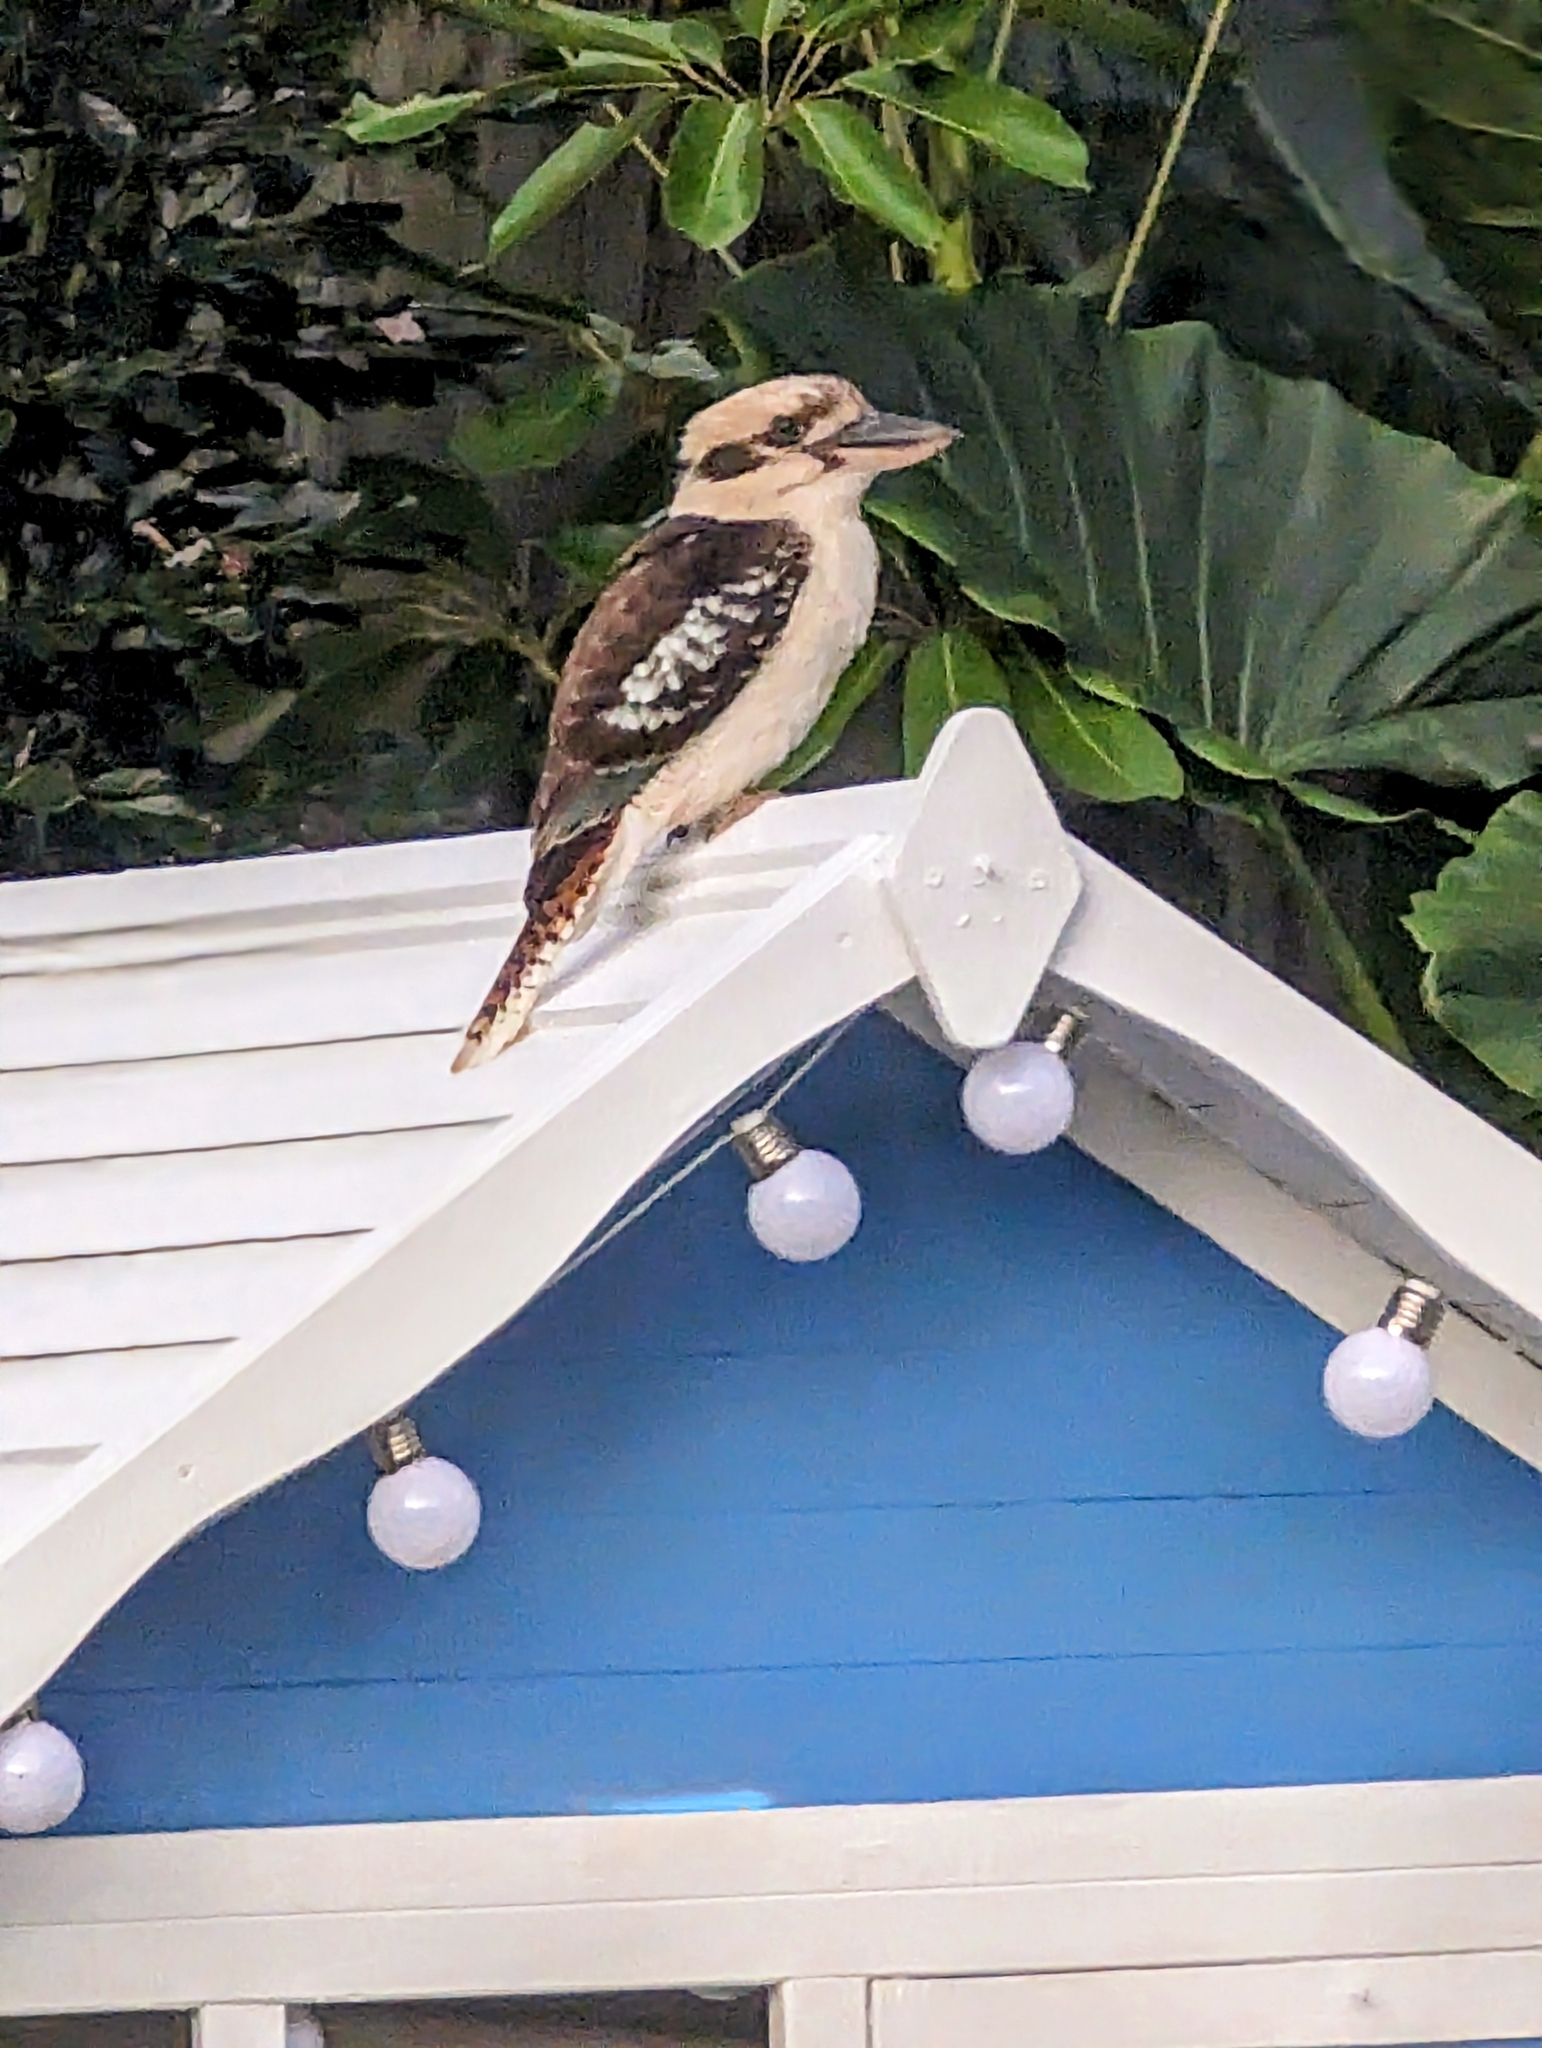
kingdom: Animalia
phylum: Chordata
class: Aves
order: Coraciiformes
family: Alcedinidae
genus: Dacelo
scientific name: Dacelo novaeguineae
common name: Laughing kookaburra
